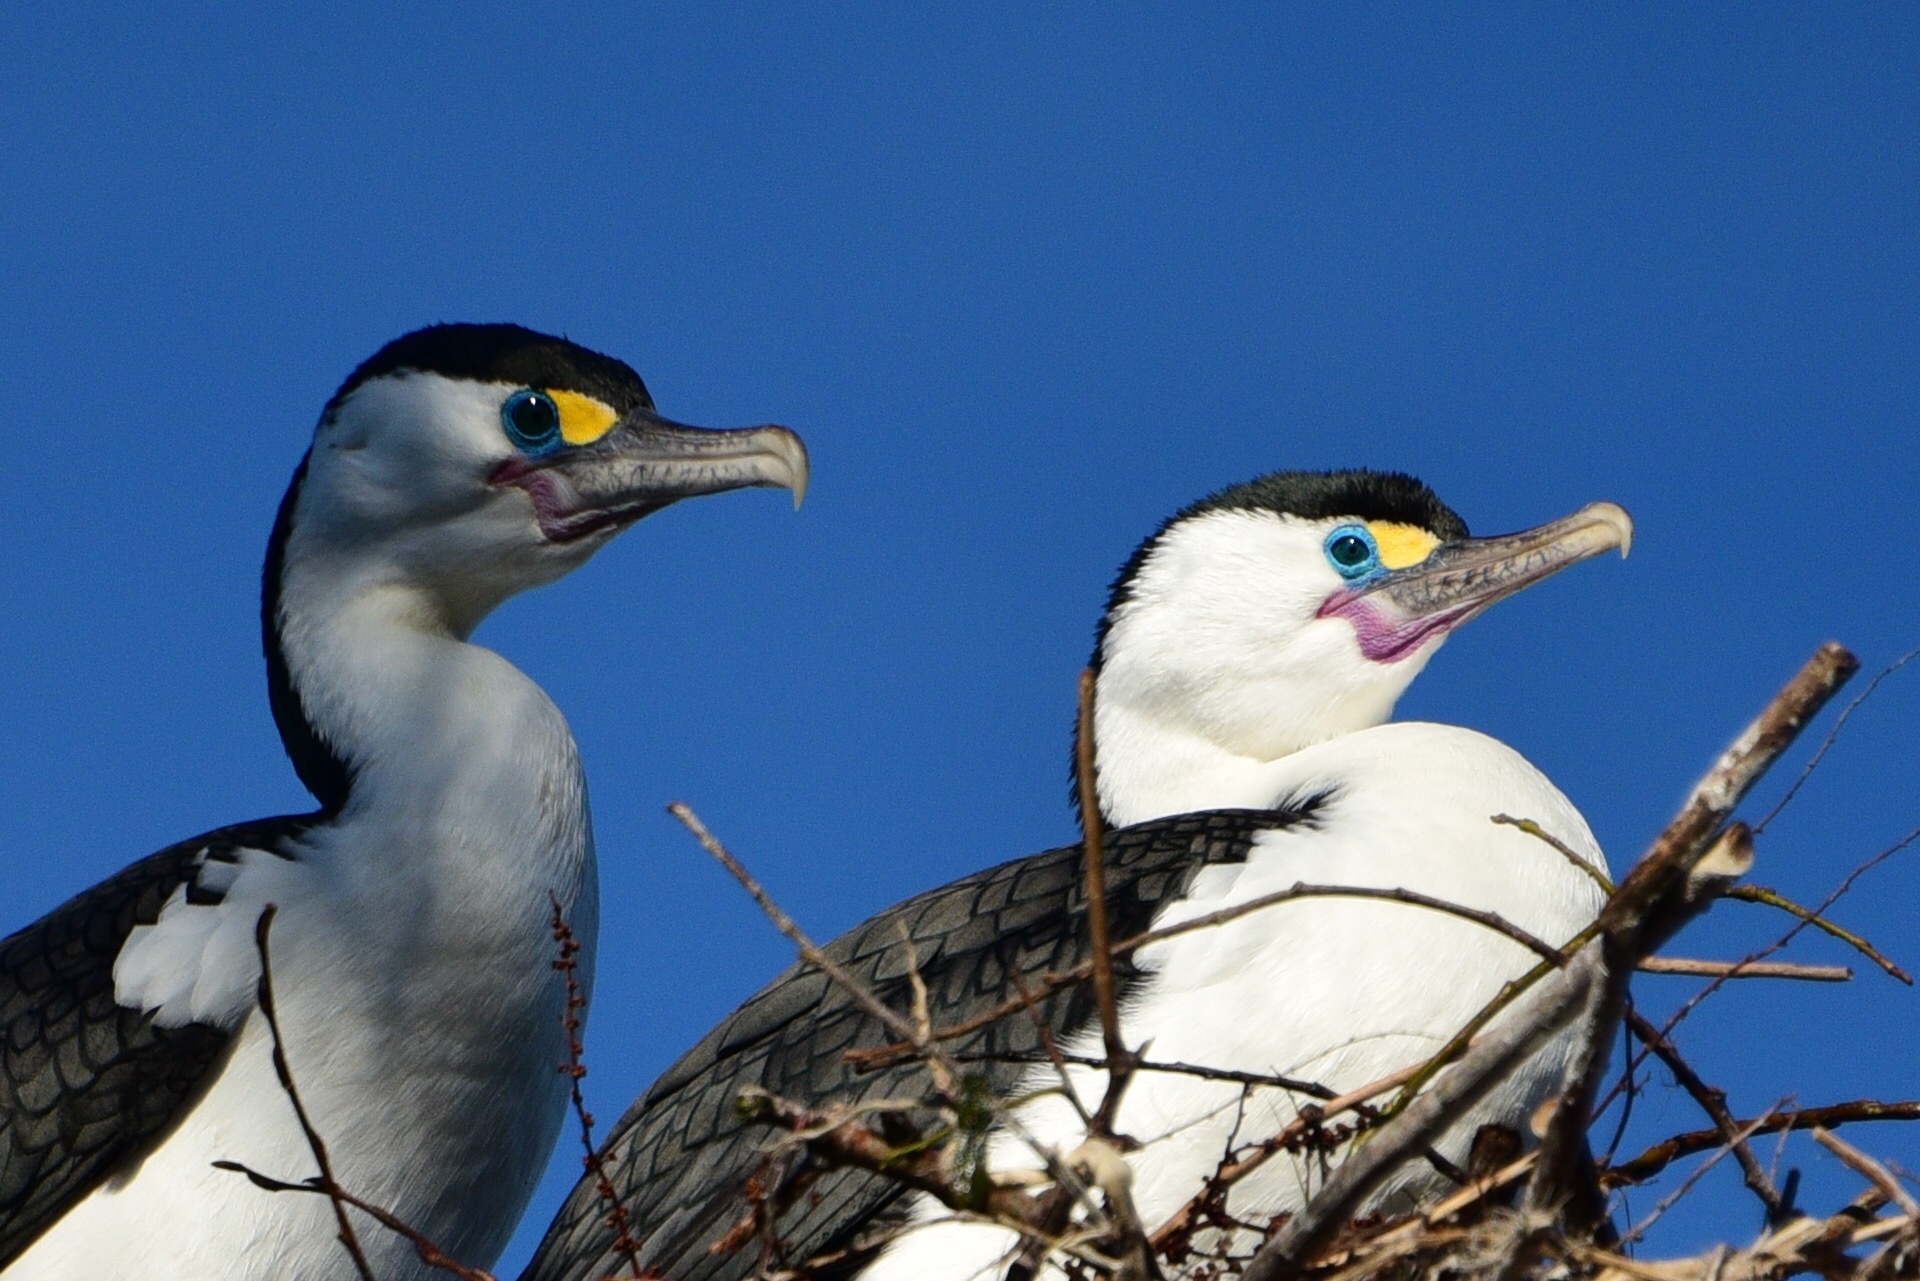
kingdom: Animalia
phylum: Chordata
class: Aves
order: Suliformes
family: Phalacrocoracidae
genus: Phalacrocorax
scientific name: Phalacrocorax varius
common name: Pied cormorant
